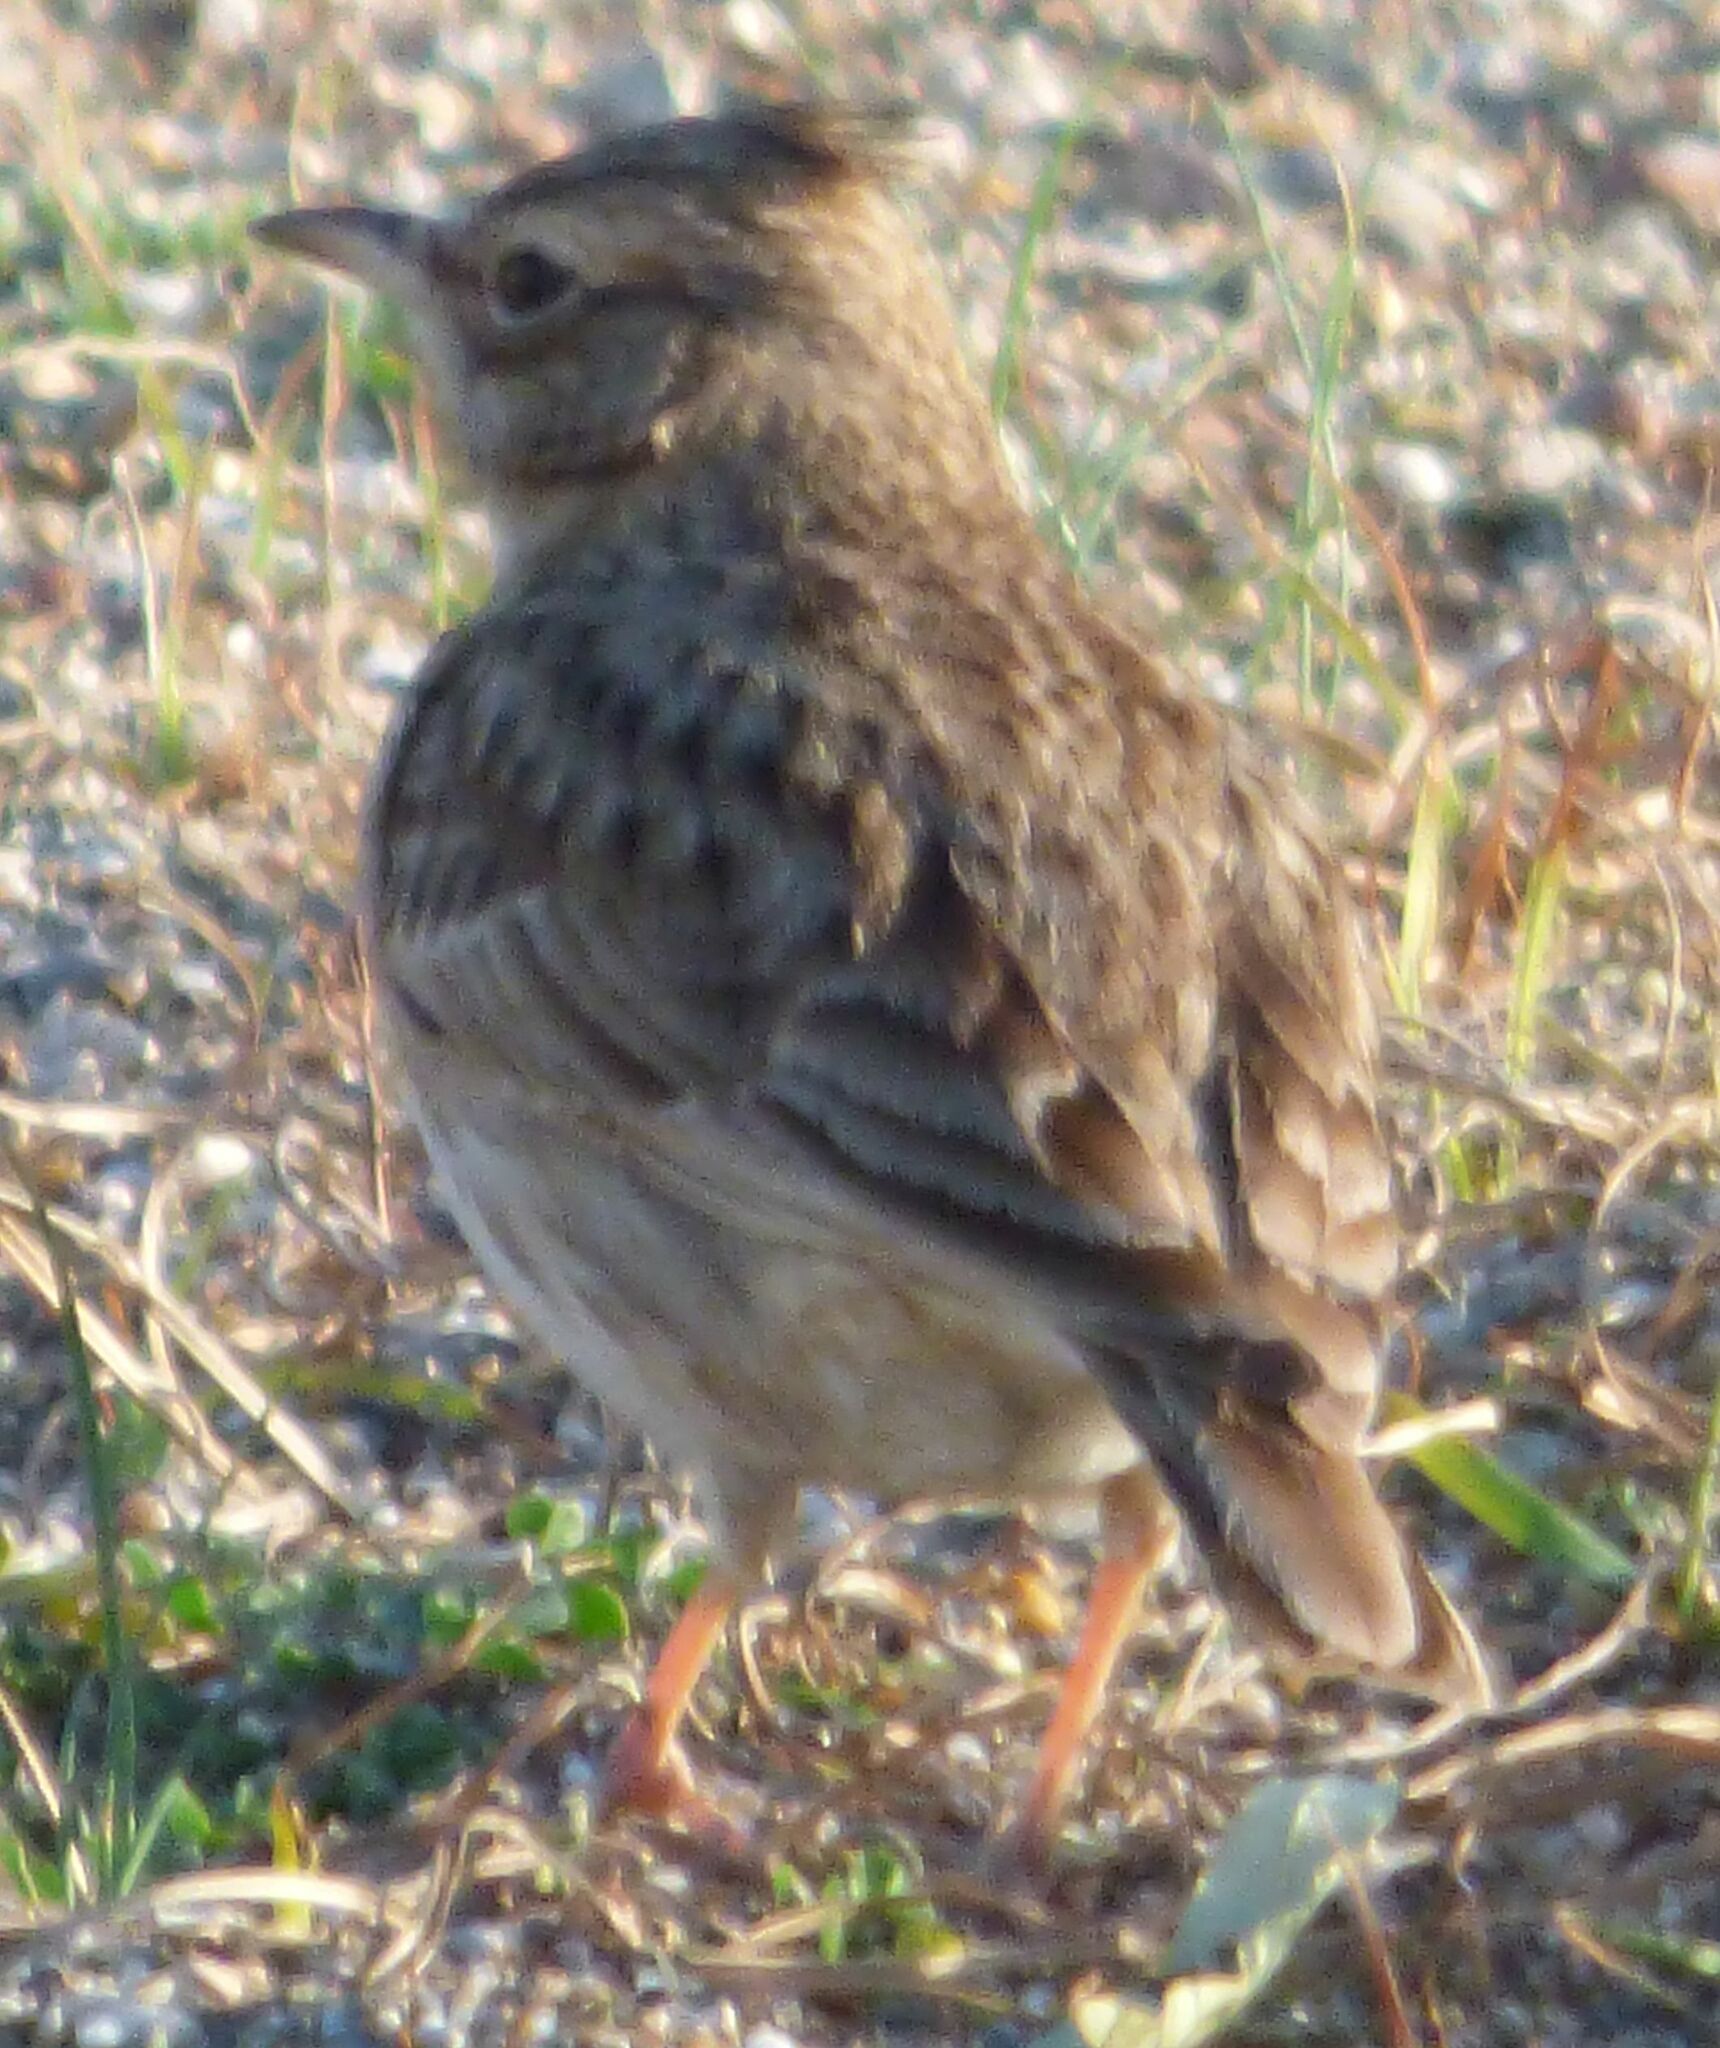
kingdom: Animalia
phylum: Chordata
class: Aves
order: Passeriformes
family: Alaudidae
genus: Galerida
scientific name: Galerida cristata
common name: Crested lark
